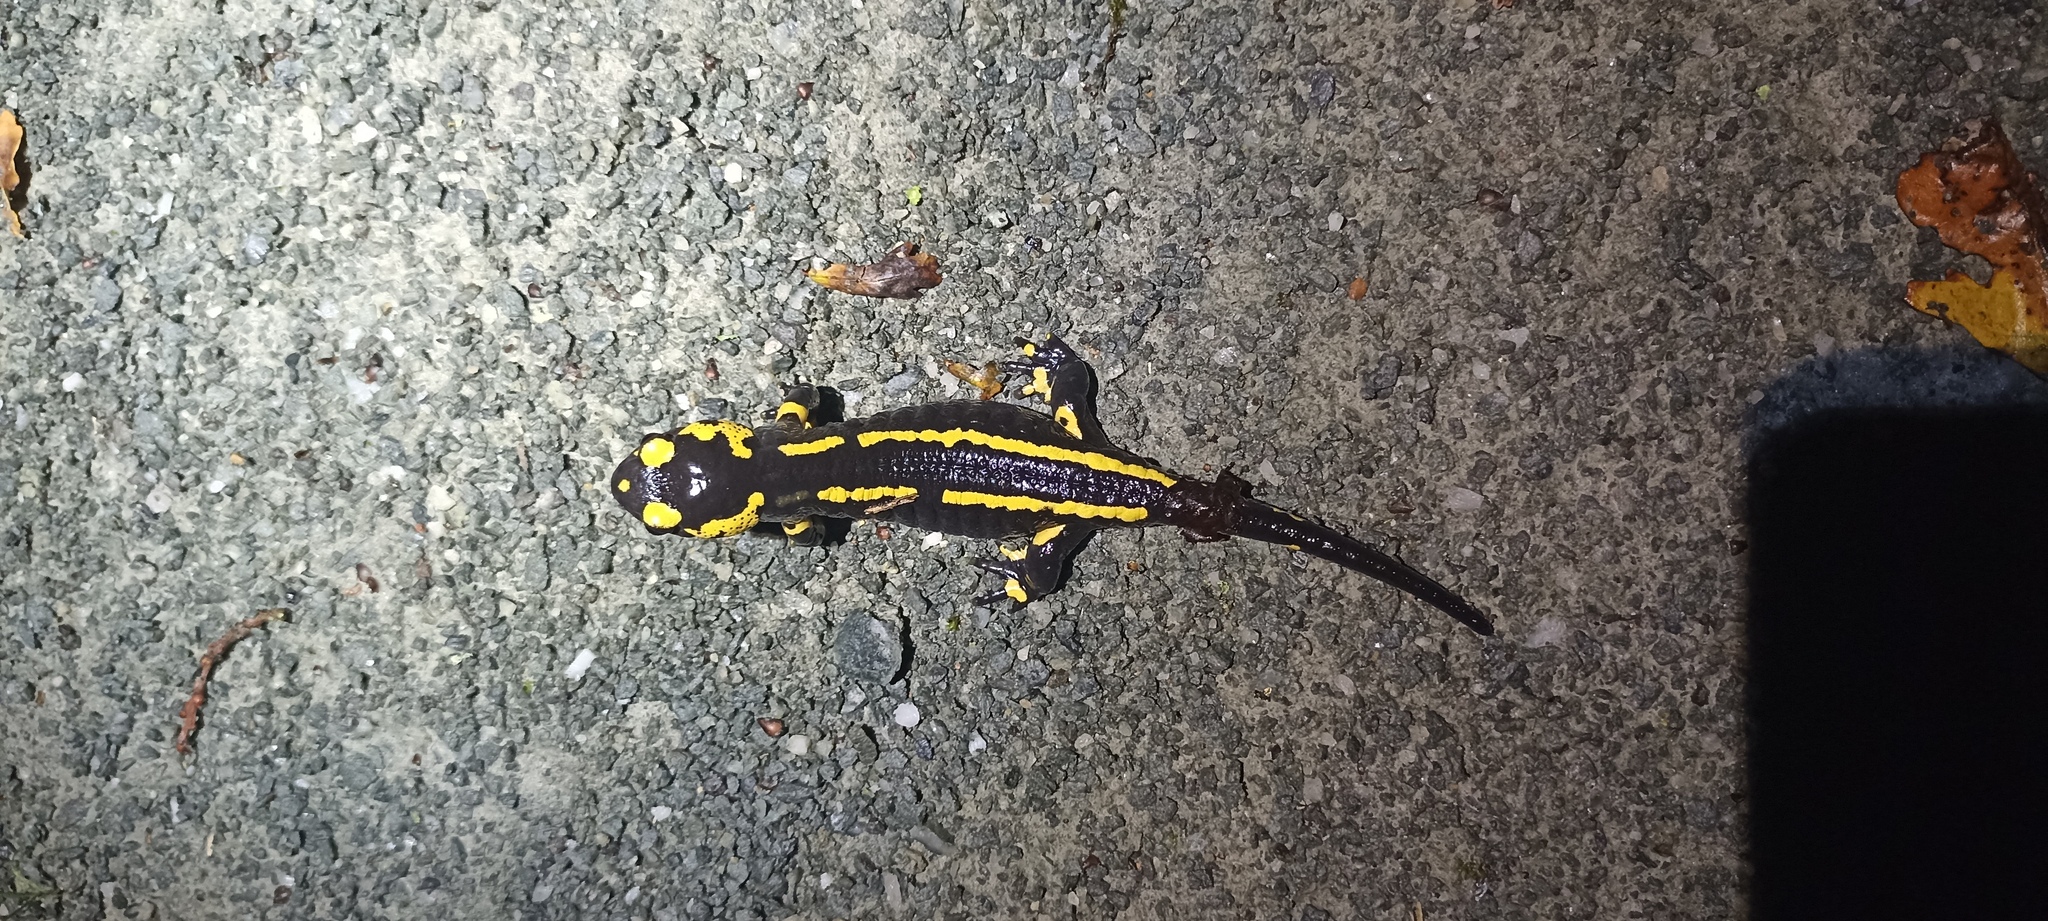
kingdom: Animalia
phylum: Chordata
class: Amphibia
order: Caudata
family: Salamandridae
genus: Salamandra
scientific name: Salamandra salamandra
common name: Fire salamander
